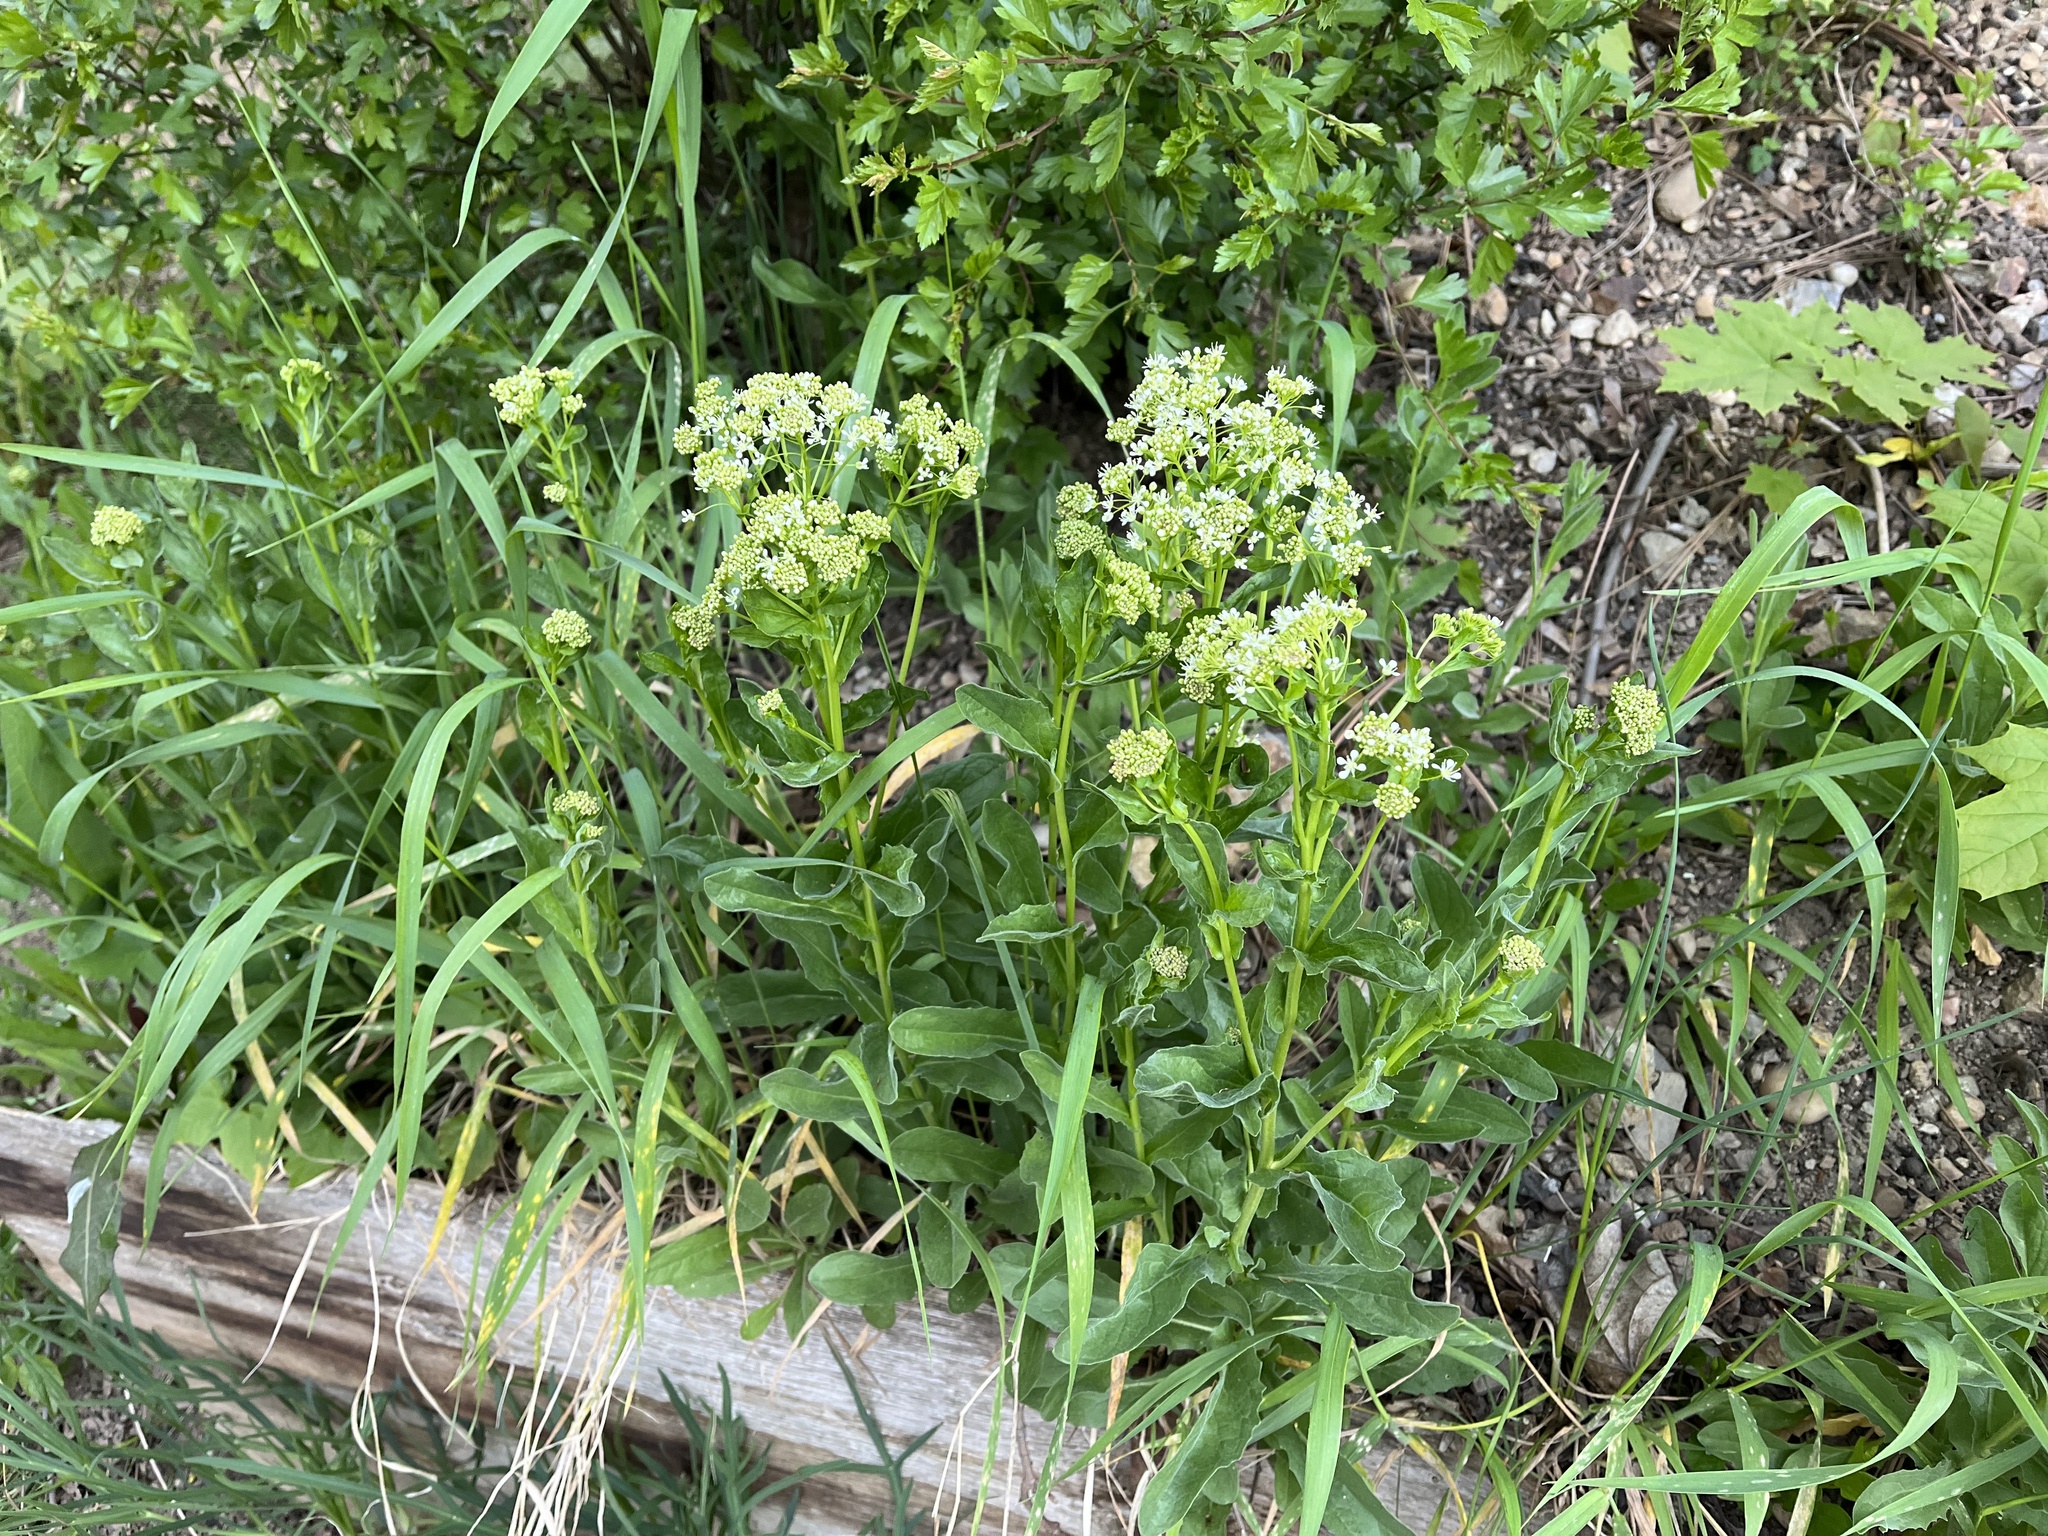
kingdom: Plantae
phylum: Tracheophyta
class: Magnoliopsida
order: Brassicales
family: Brassicaceae
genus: Lepidium
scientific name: Lepidium draba
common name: Hoary cress
